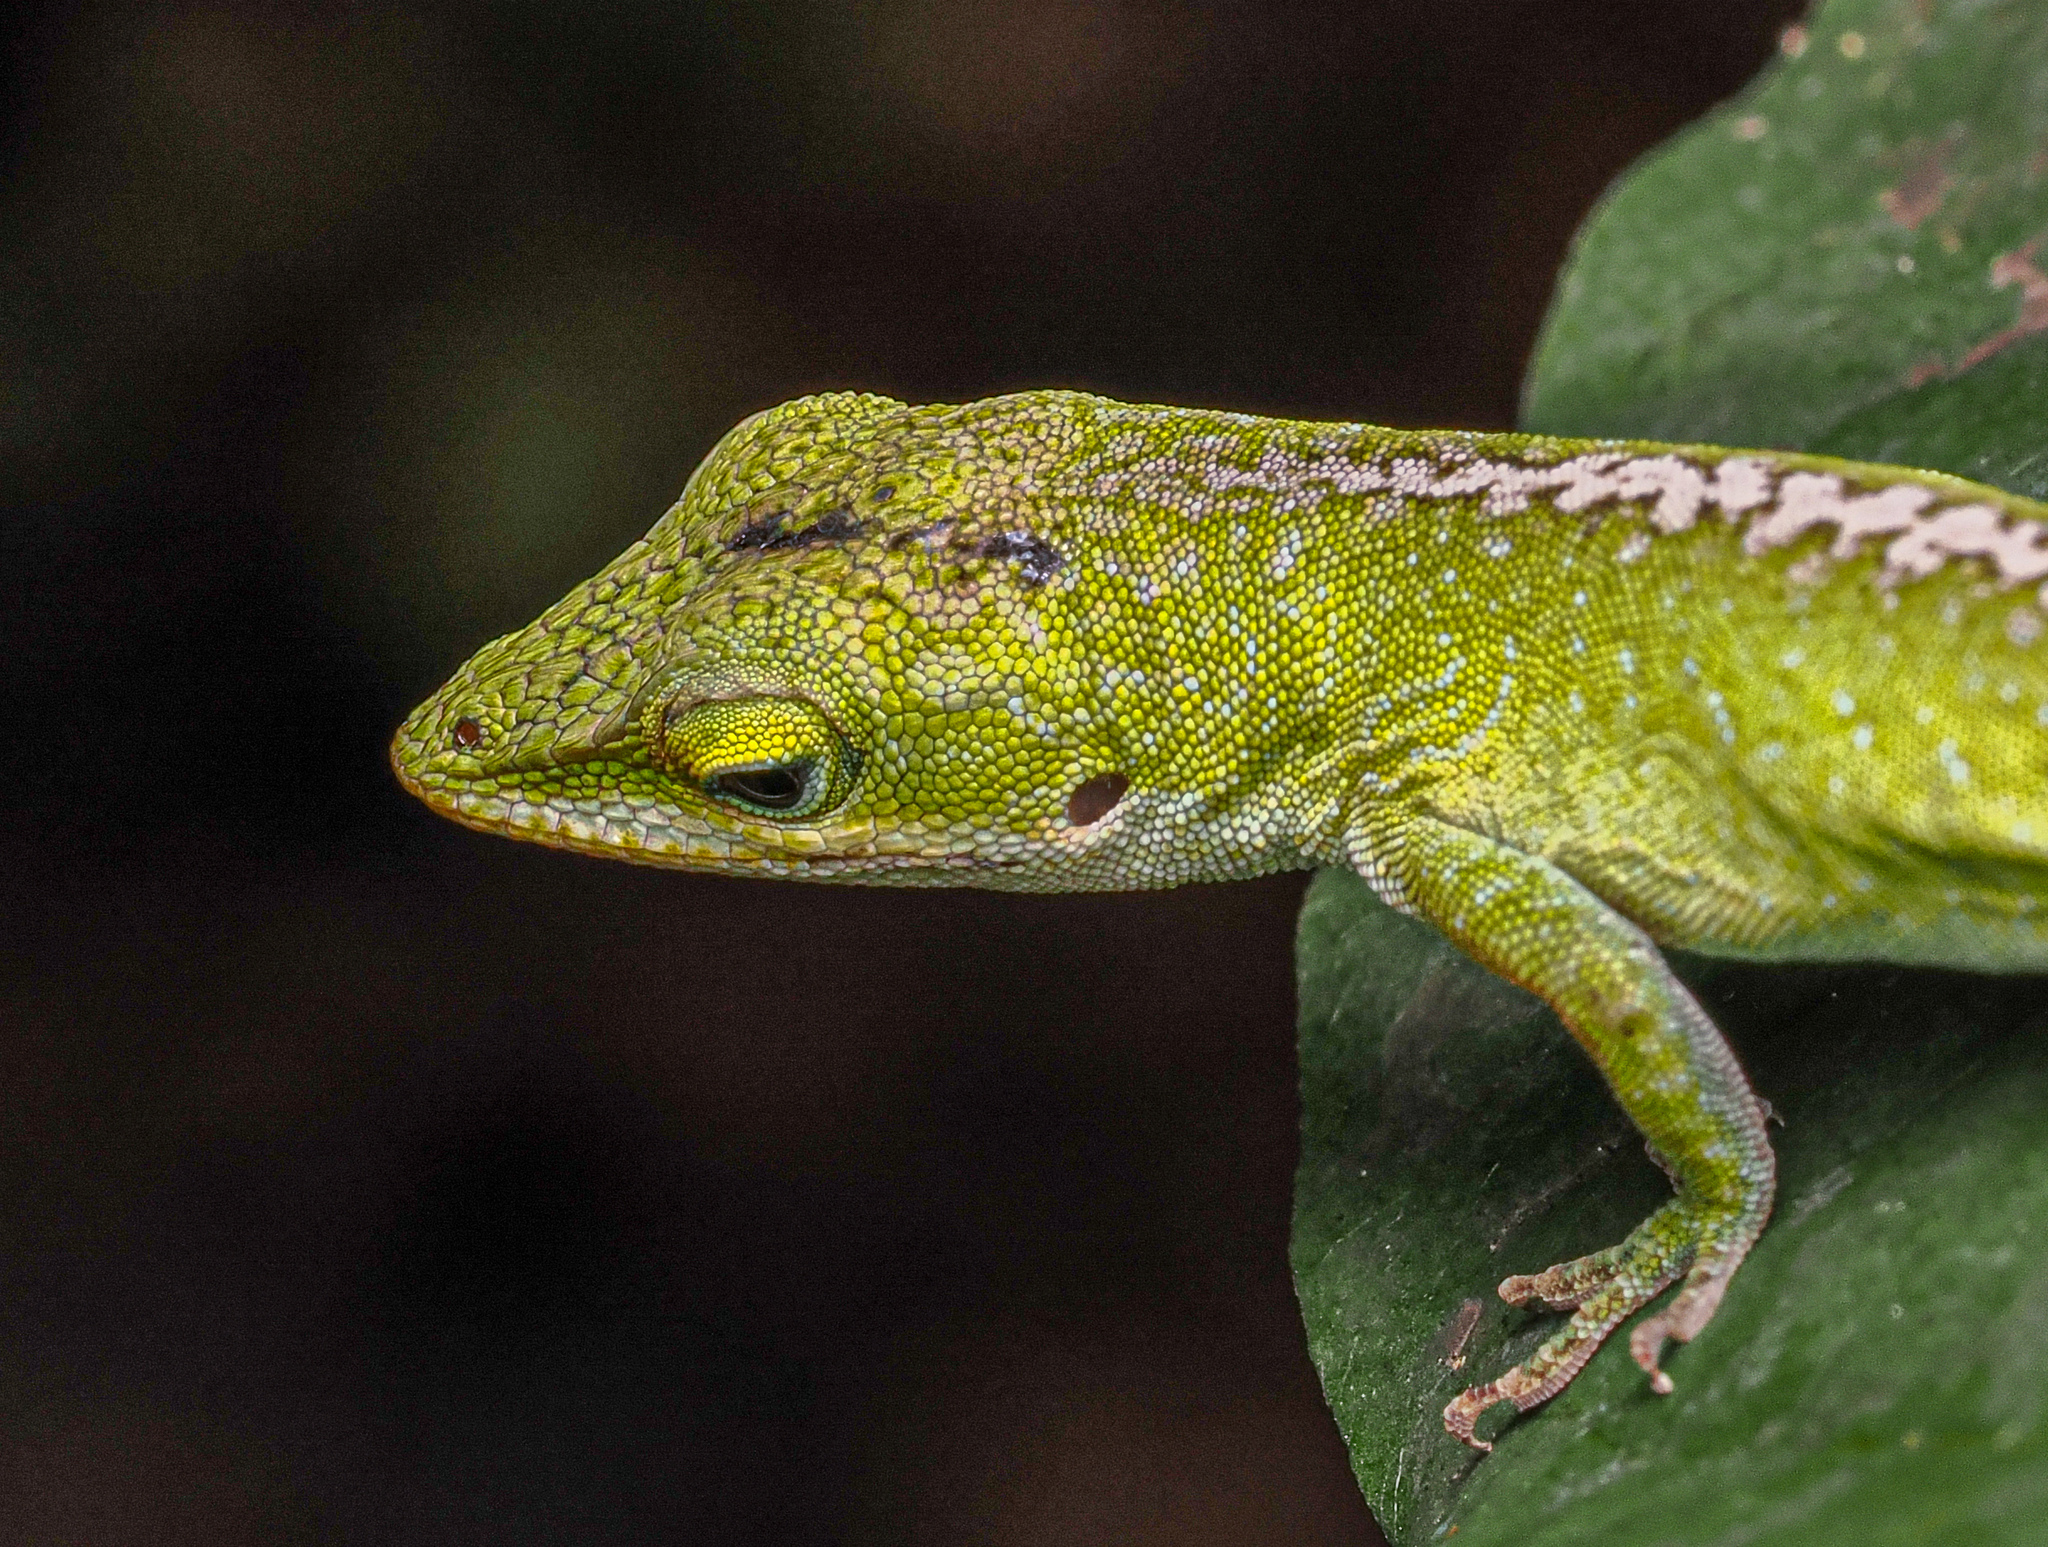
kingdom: Animalia
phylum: Chordata
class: Squamata
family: Dactyloidae
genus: Anolis
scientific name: Anolis carolinensis
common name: Green anole
